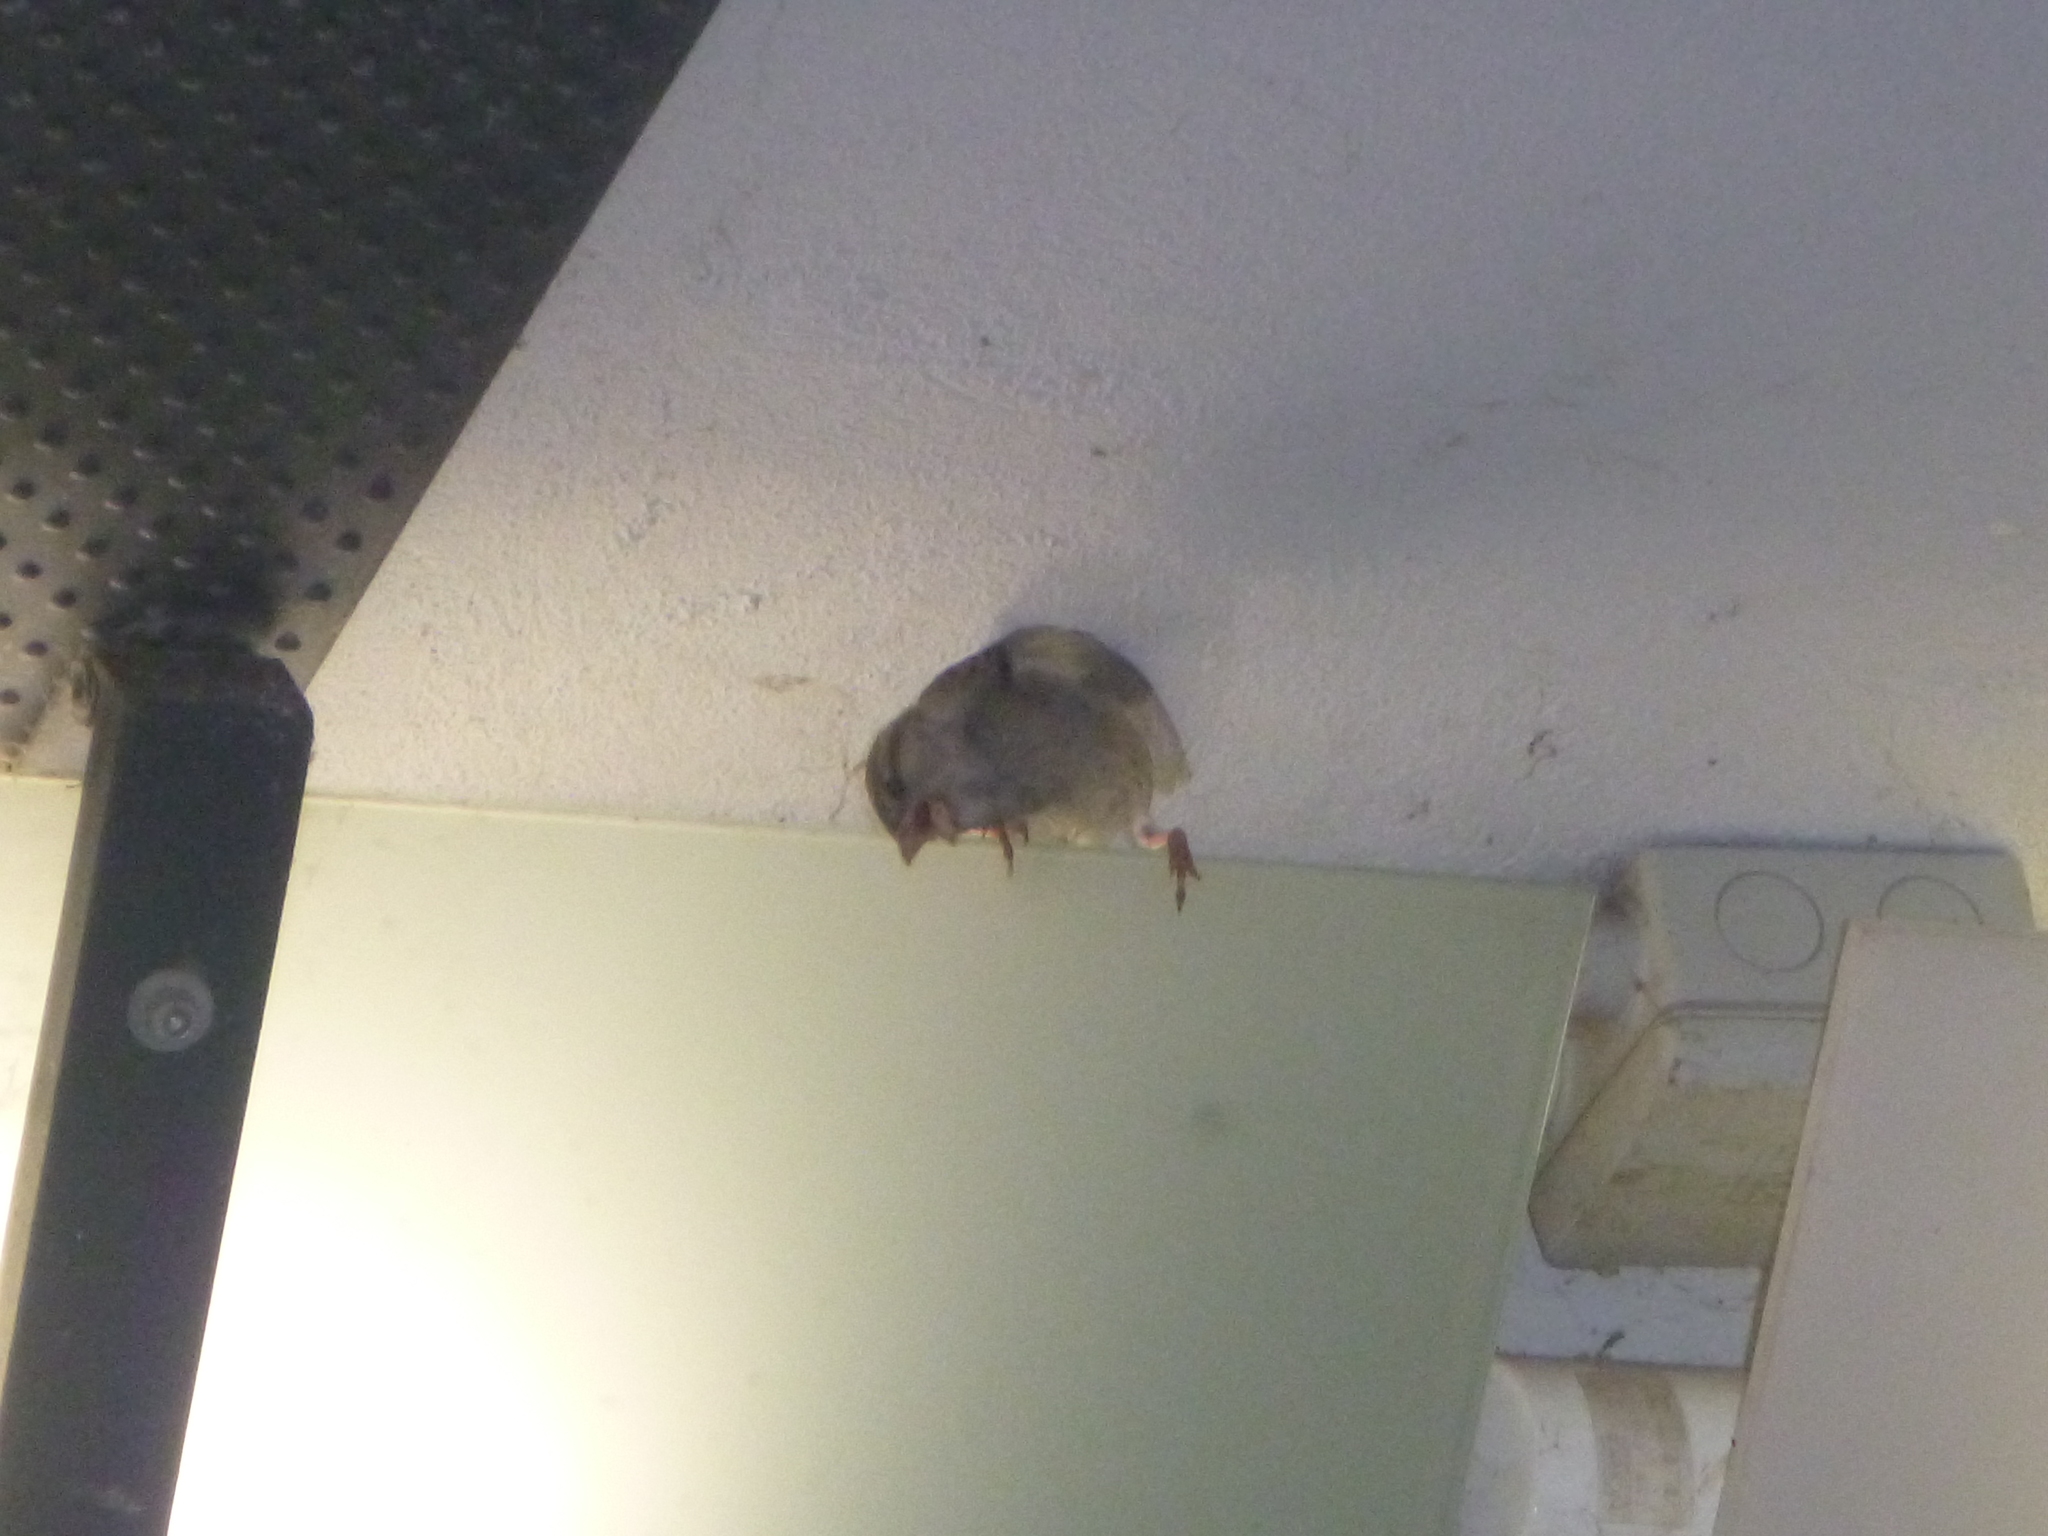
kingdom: Animalia
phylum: Chordata
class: Aves
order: Passeriformes
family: Passeridae
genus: Passer
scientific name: Passer domesticus
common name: House sparrow
